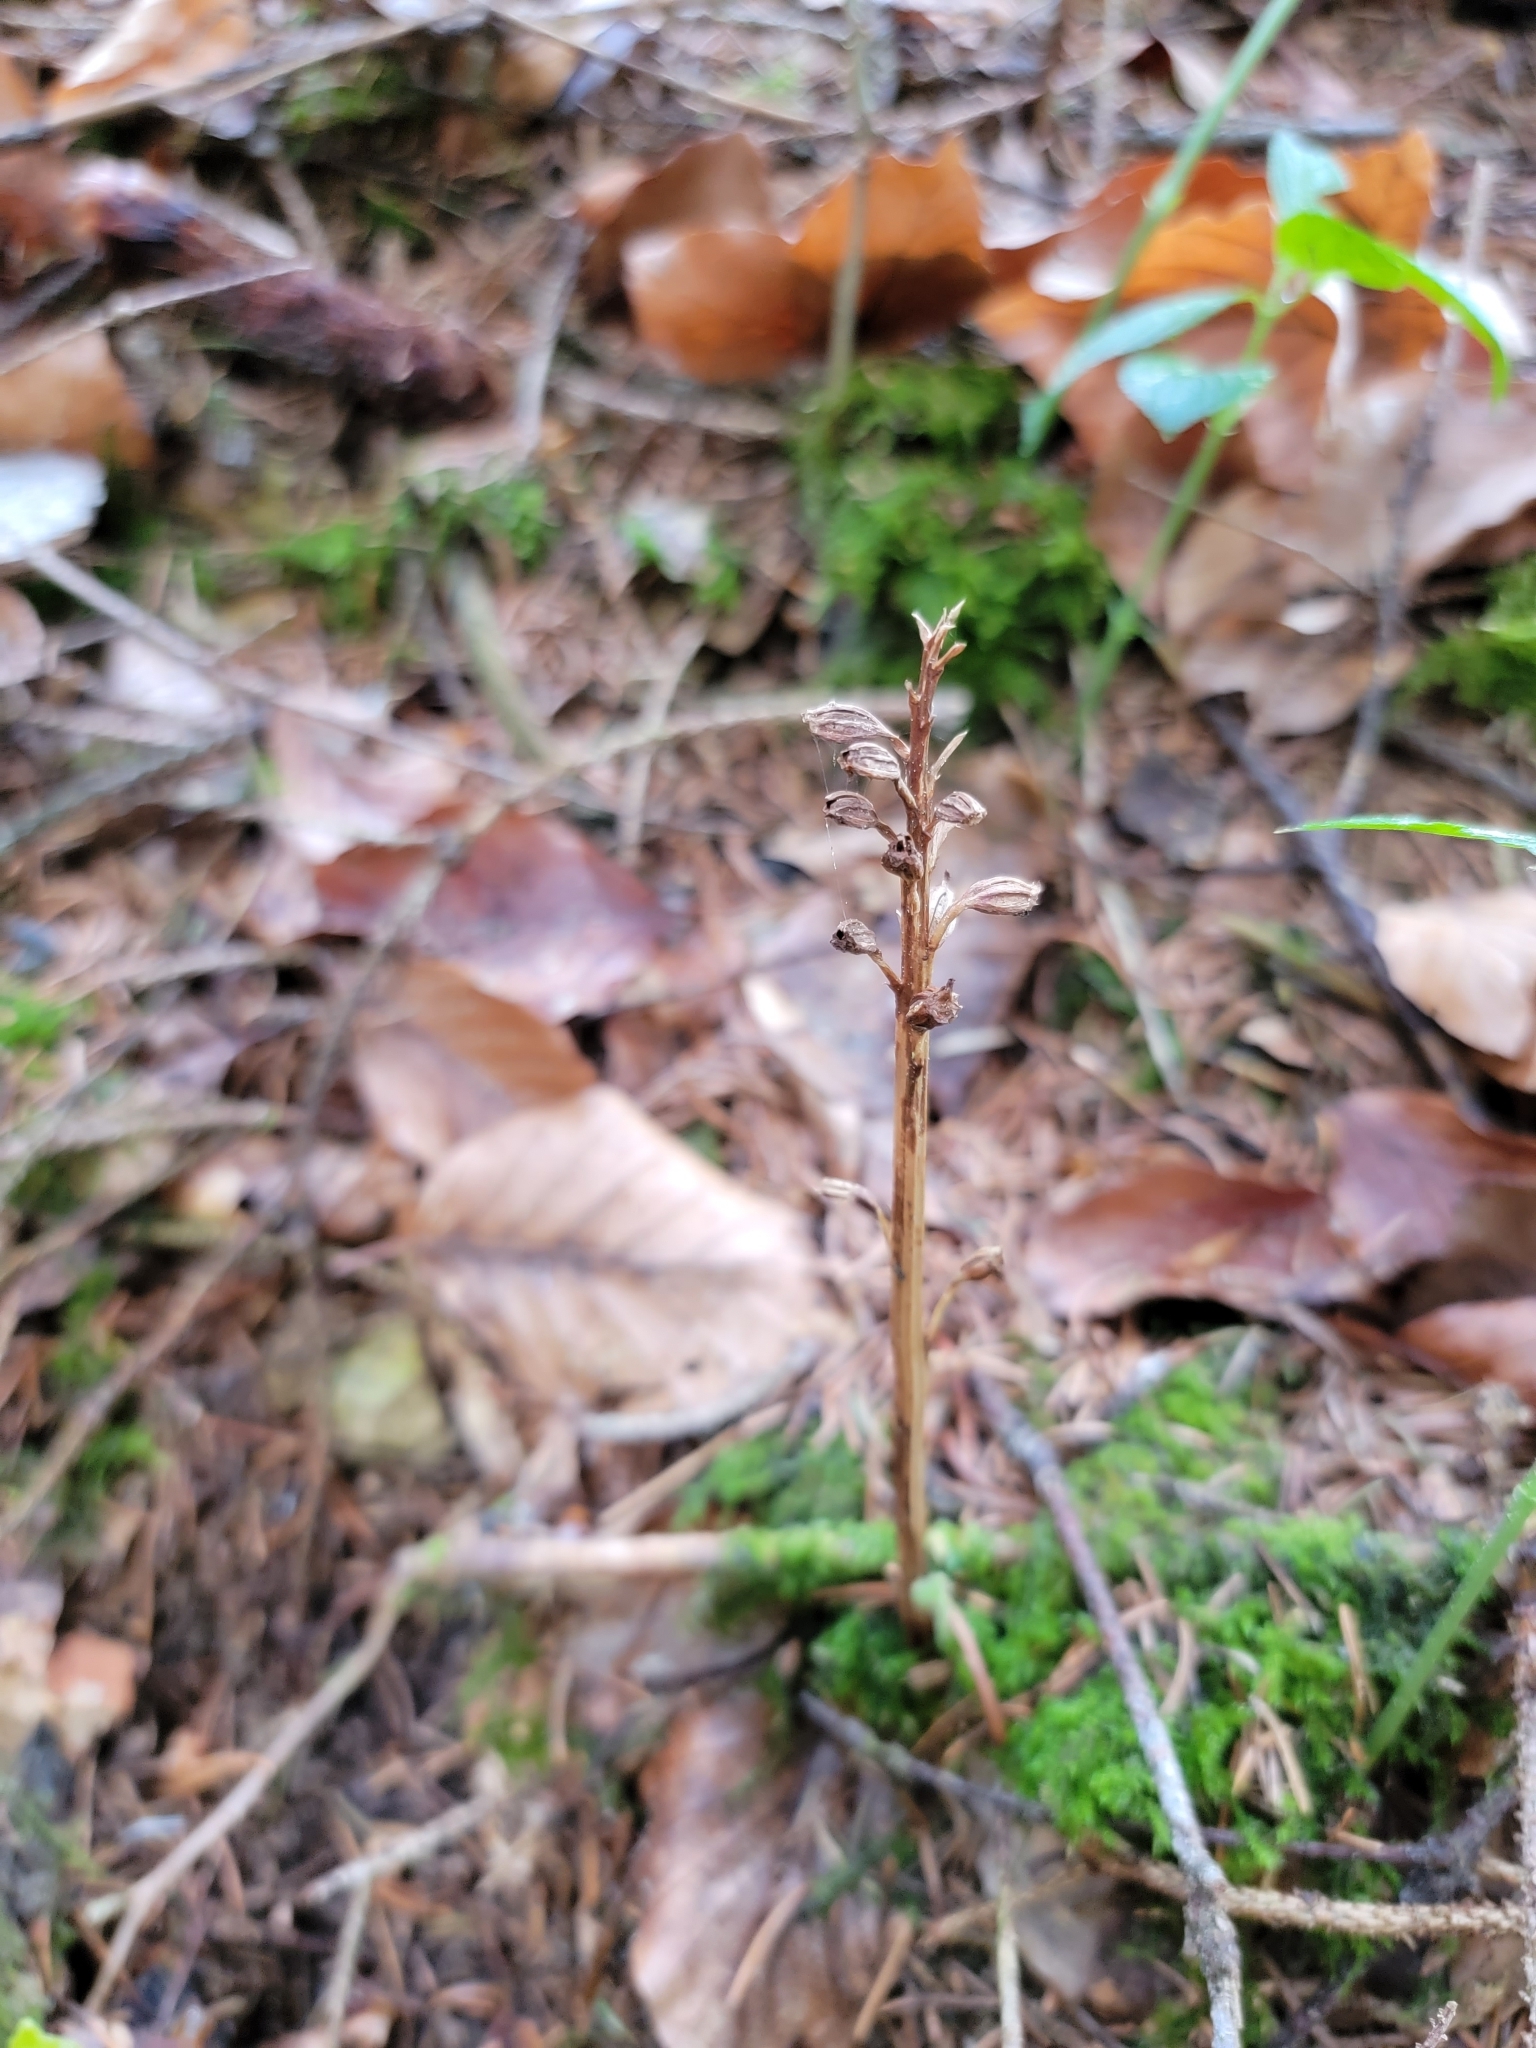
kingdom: Plantae
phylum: Tracheophyta
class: Liliopsida
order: Asparagales
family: Orchidaceae
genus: Neottia
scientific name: Neottia nidus-avis
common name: Bird's-nest orchid
